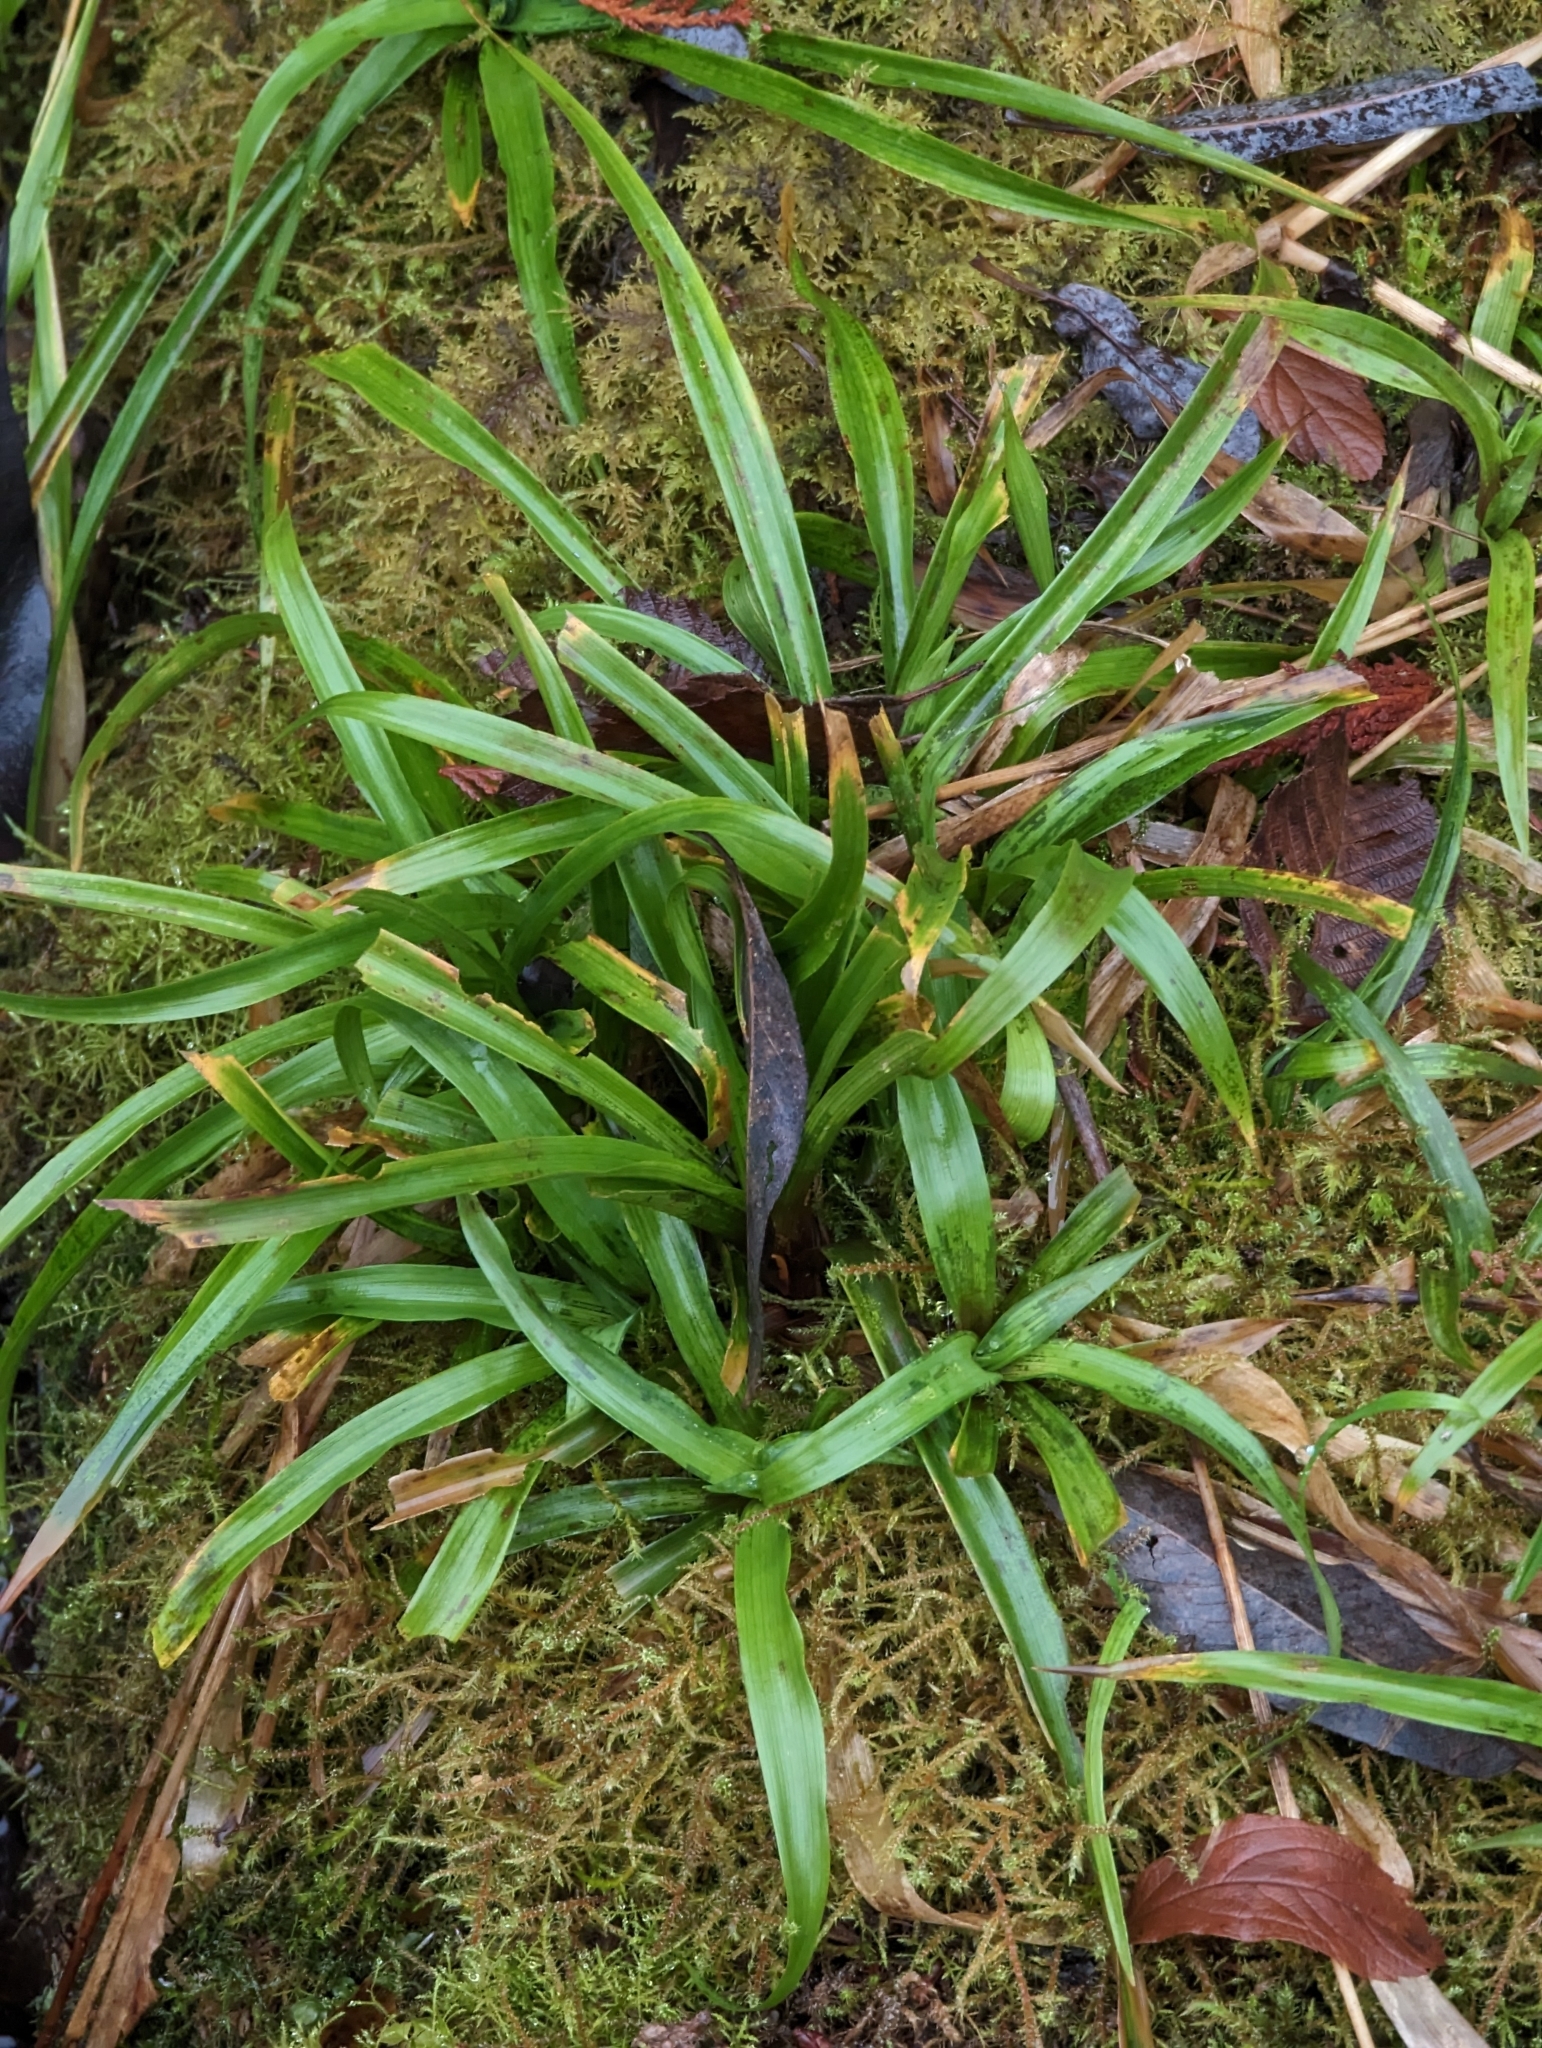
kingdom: Plantae
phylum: Tracheophyta
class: Liliopsida
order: Poales
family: Juncaceae
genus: Luzula
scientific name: Luzula parviflora
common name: Millet woodrush
